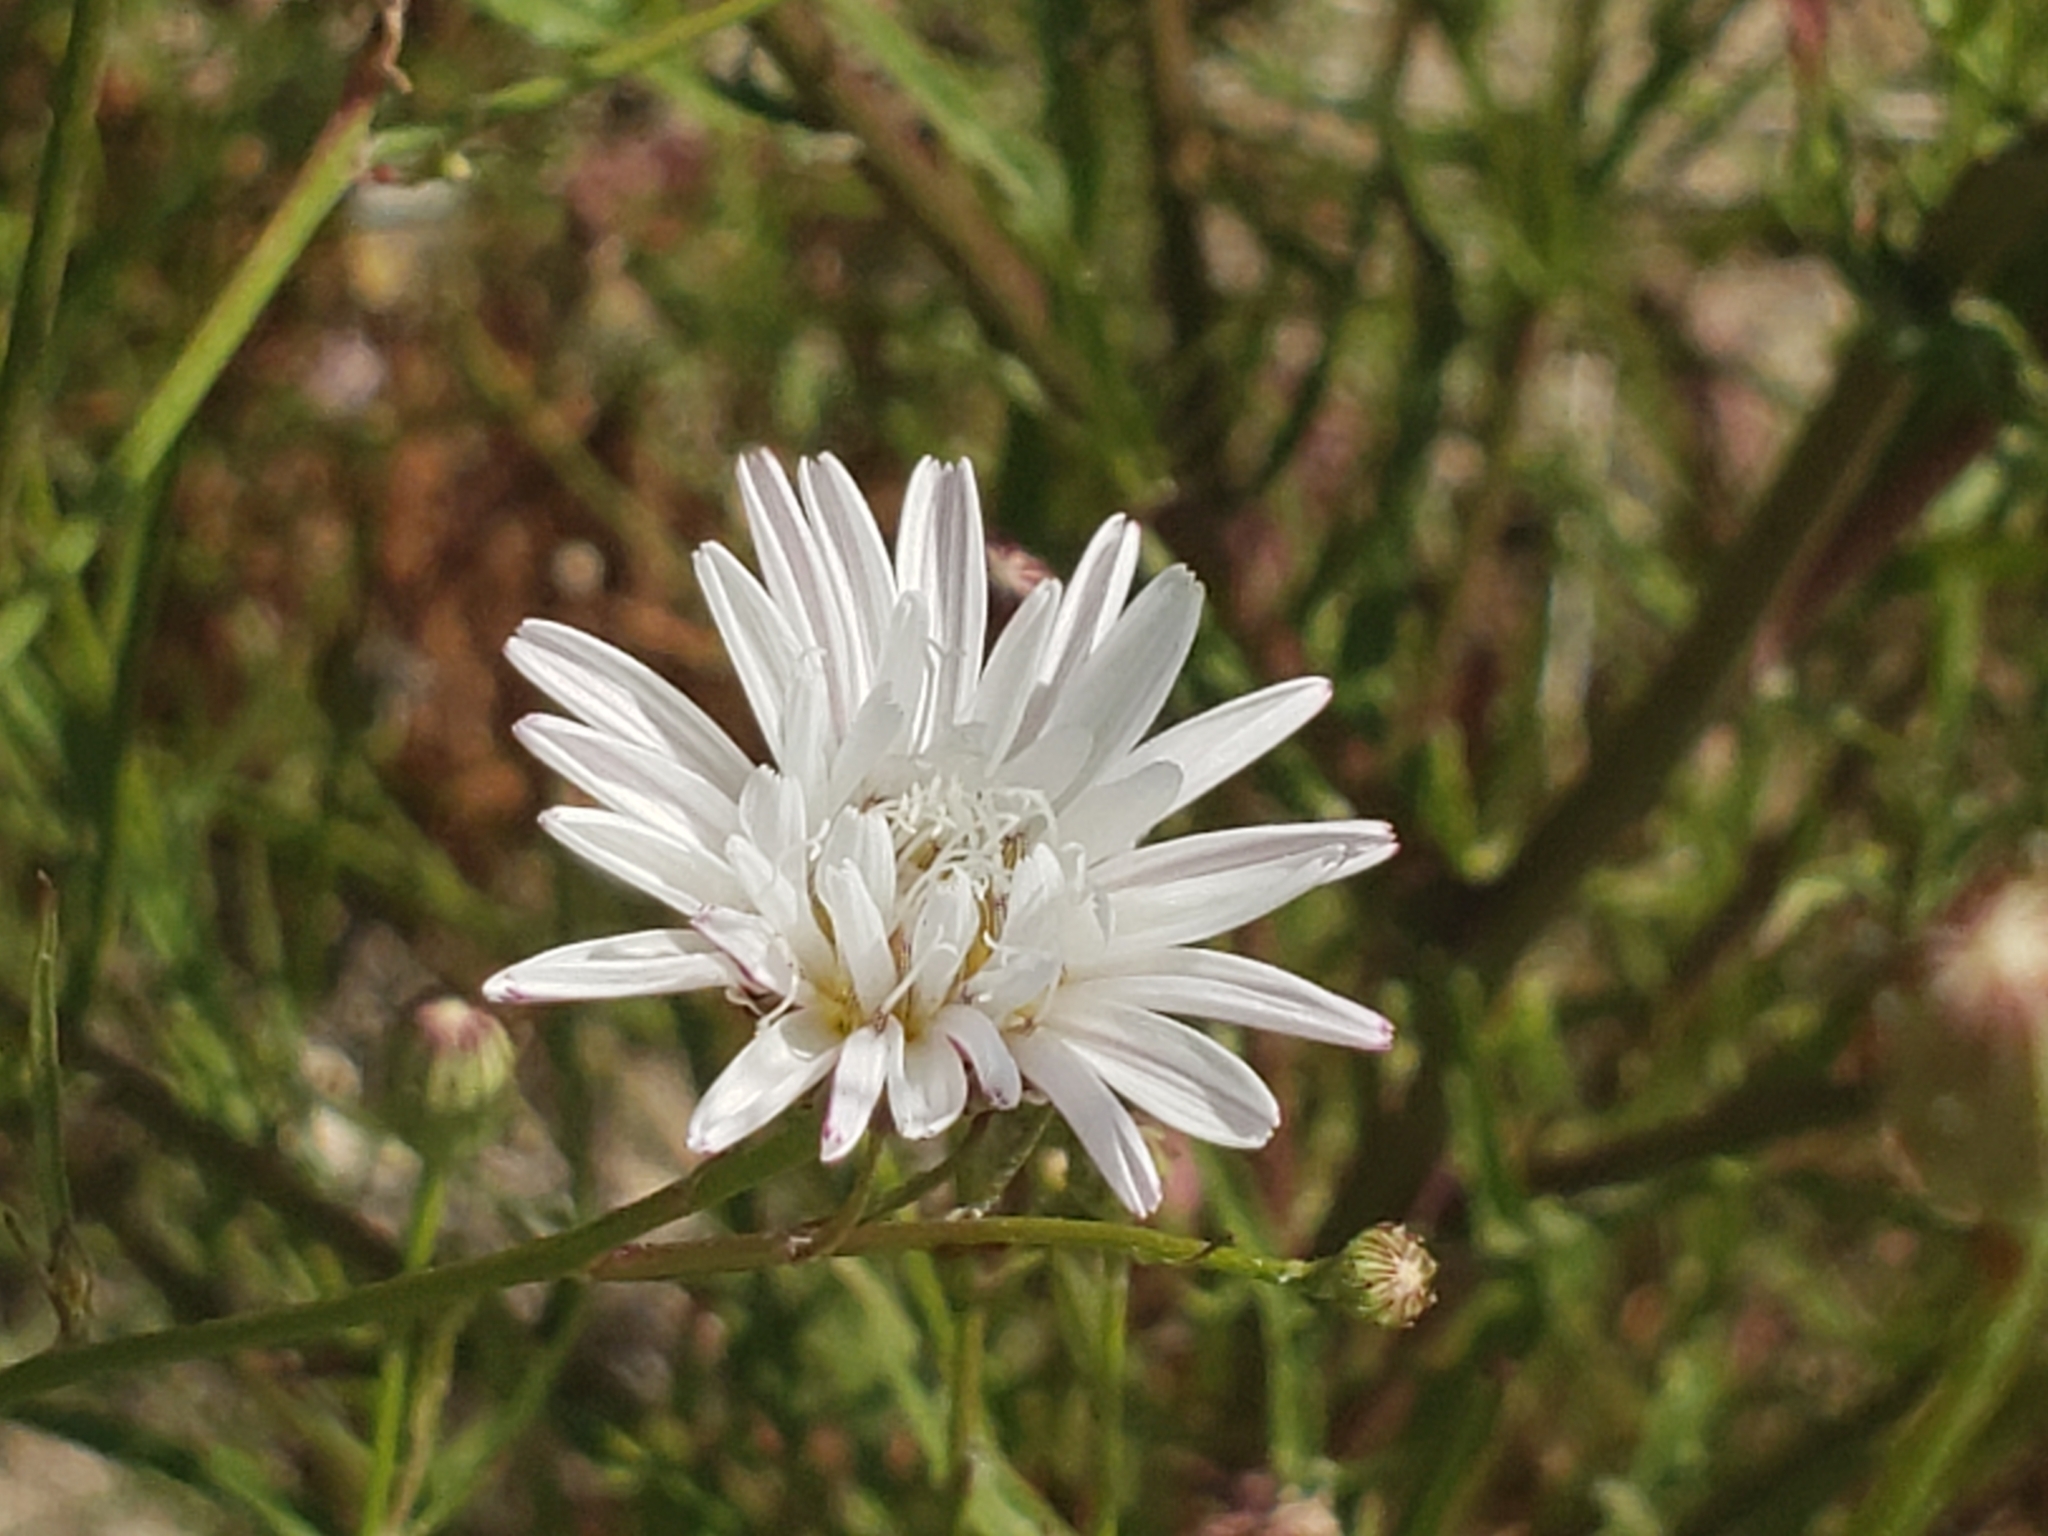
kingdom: Plantae
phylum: Tracheophyta
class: Magnoliopsida
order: Asterales
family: Asteraceae
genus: Malacothrix
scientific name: Malacothrix saxatilis
